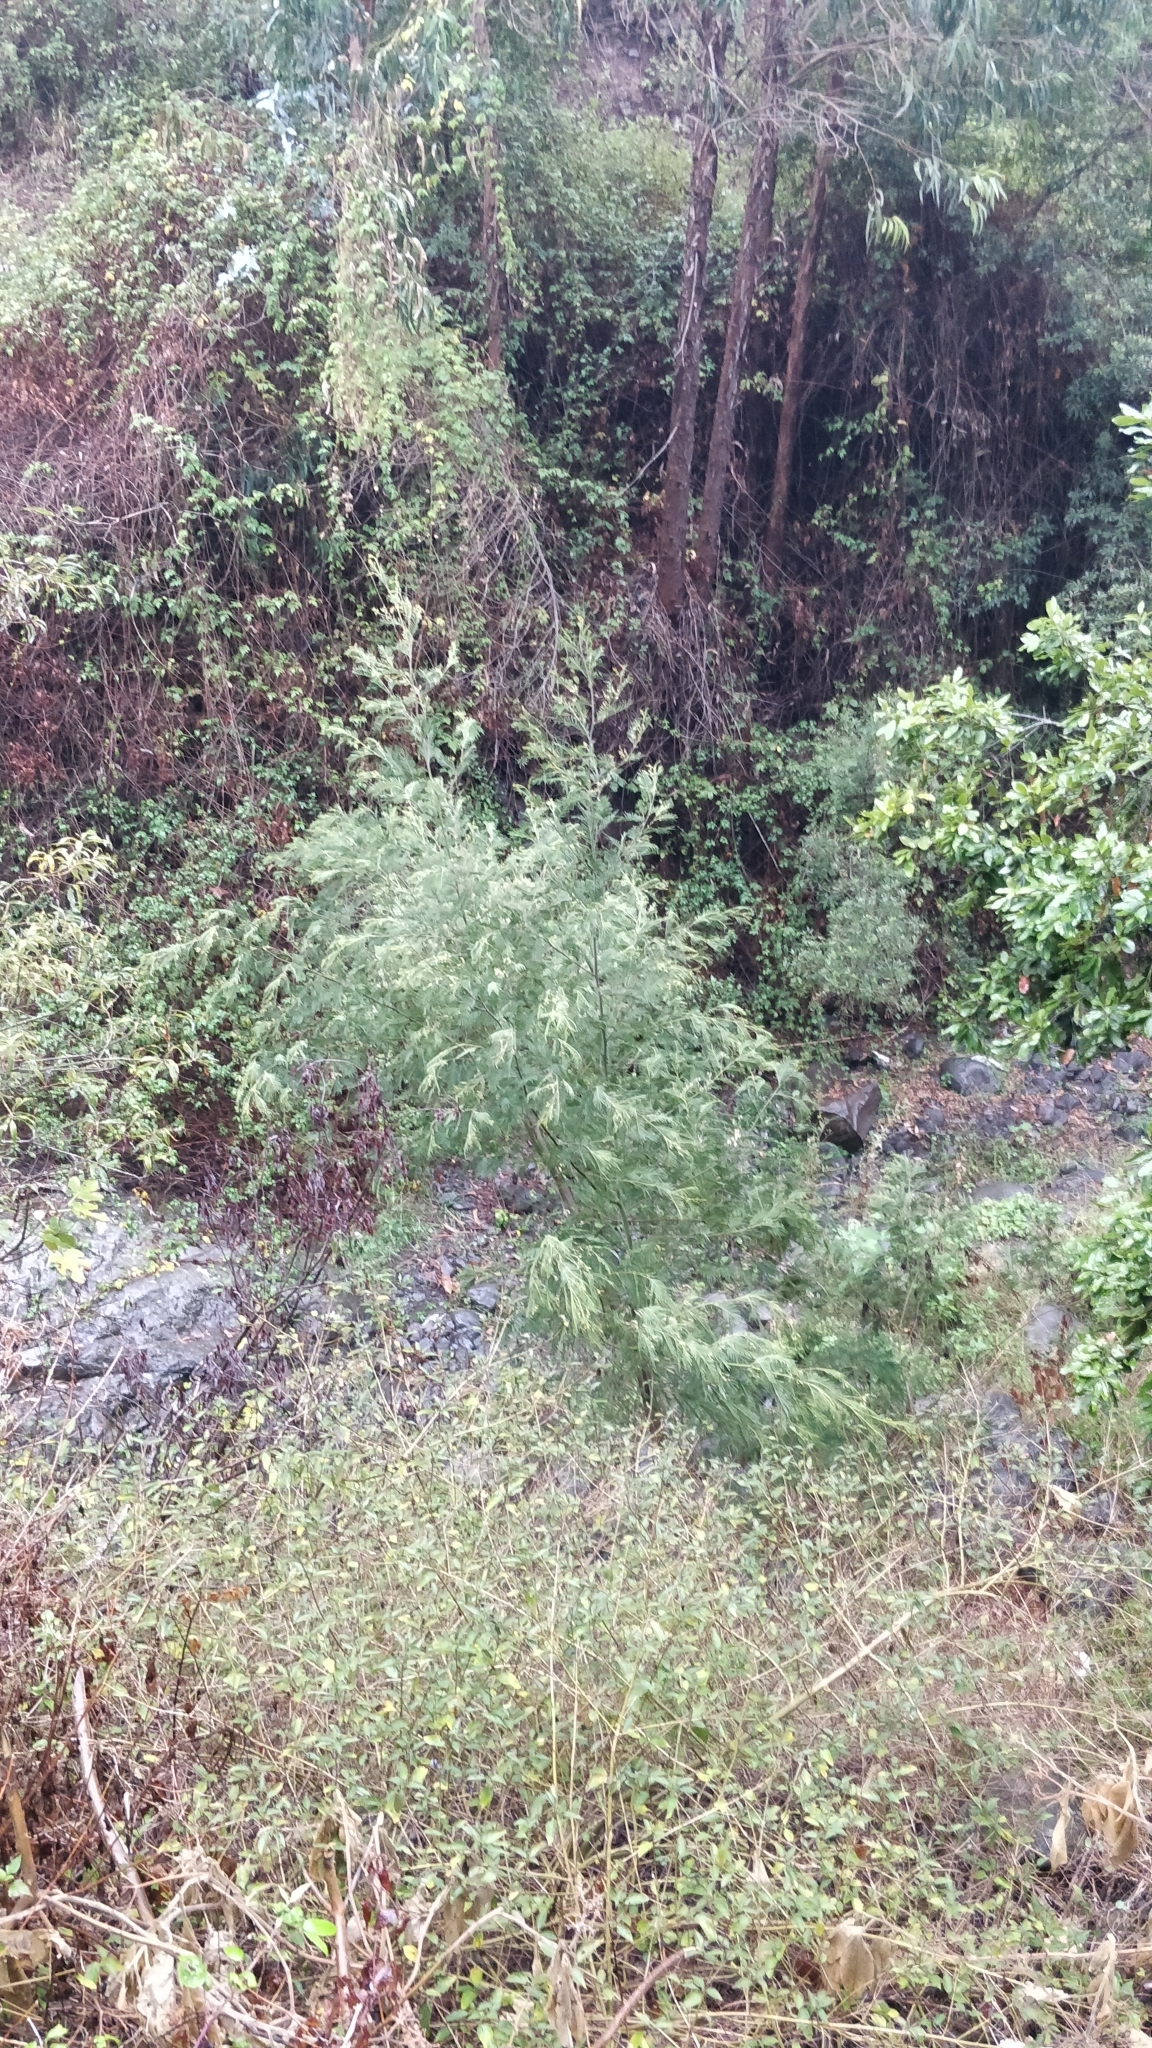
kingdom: Plantae
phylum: Tracheophyta
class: Magnoliopsida
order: Fabales
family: Fabaceae
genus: Acacia
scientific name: Acacia mearnsii
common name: Black wattle
